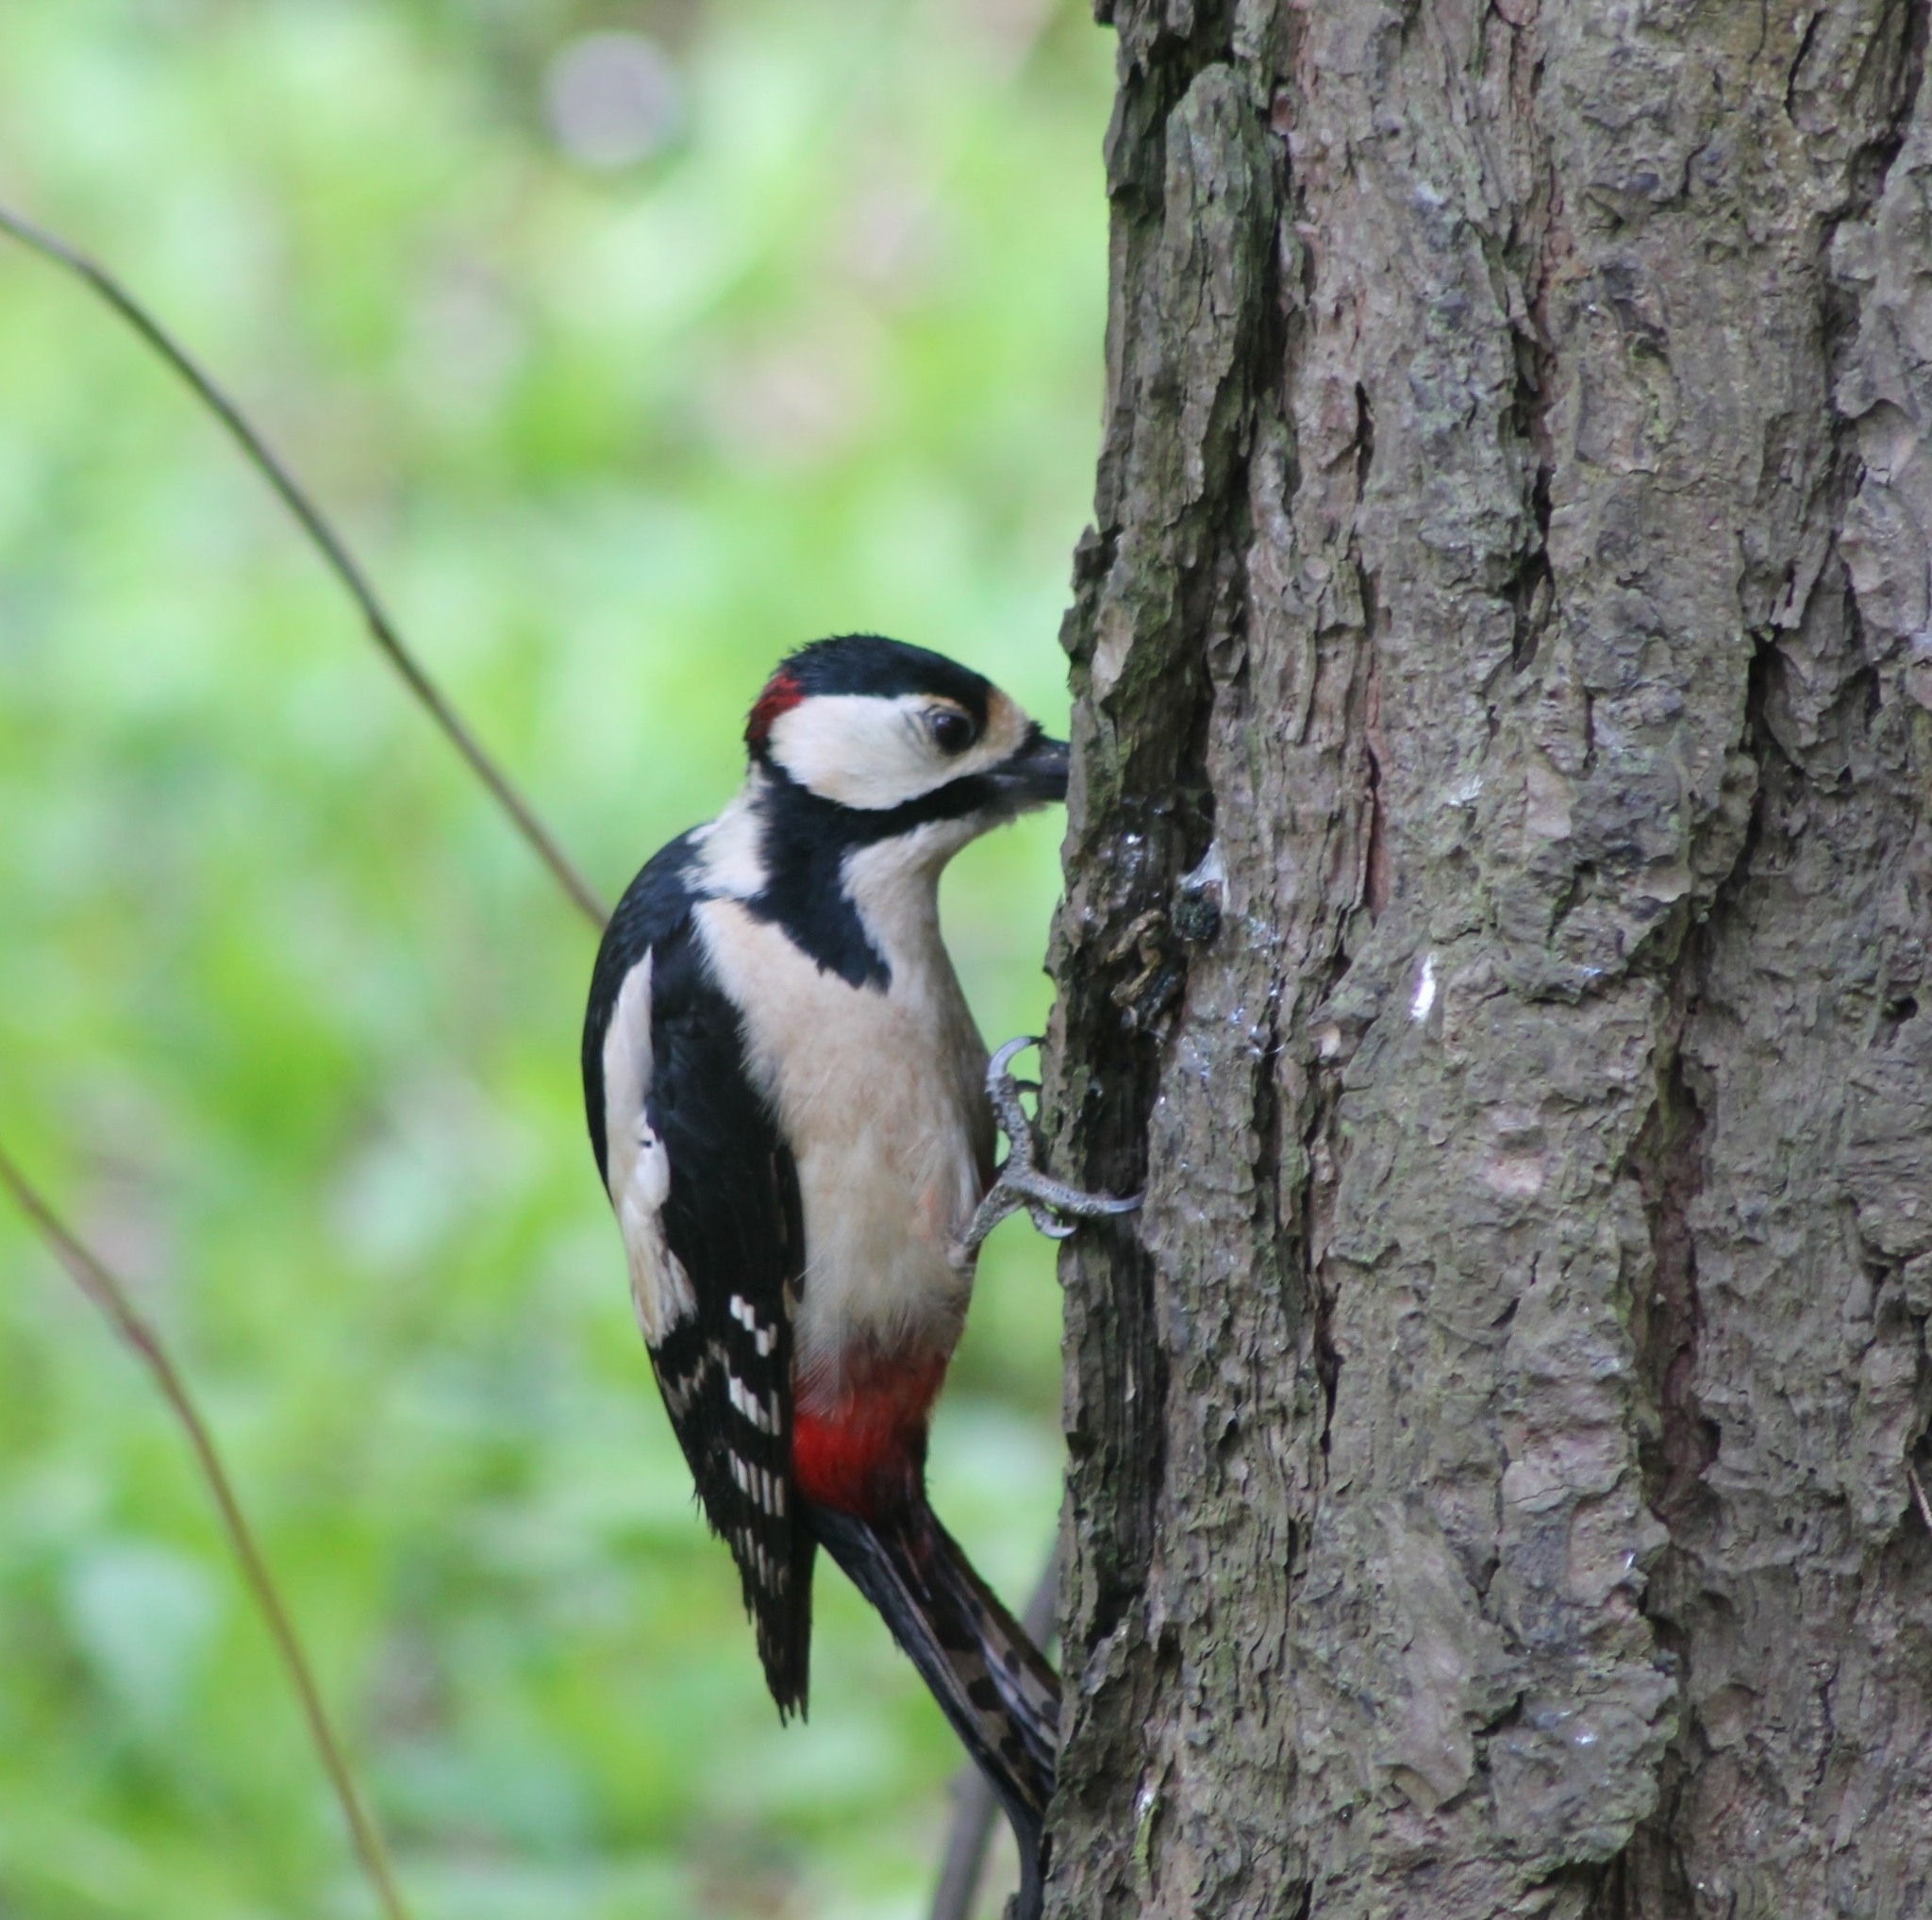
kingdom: Animalia
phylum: Chordata
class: Aves
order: Piciformes
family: Picidae
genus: Dendrocopos
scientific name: Dendrocopos major
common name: Great spotted woodpecker
